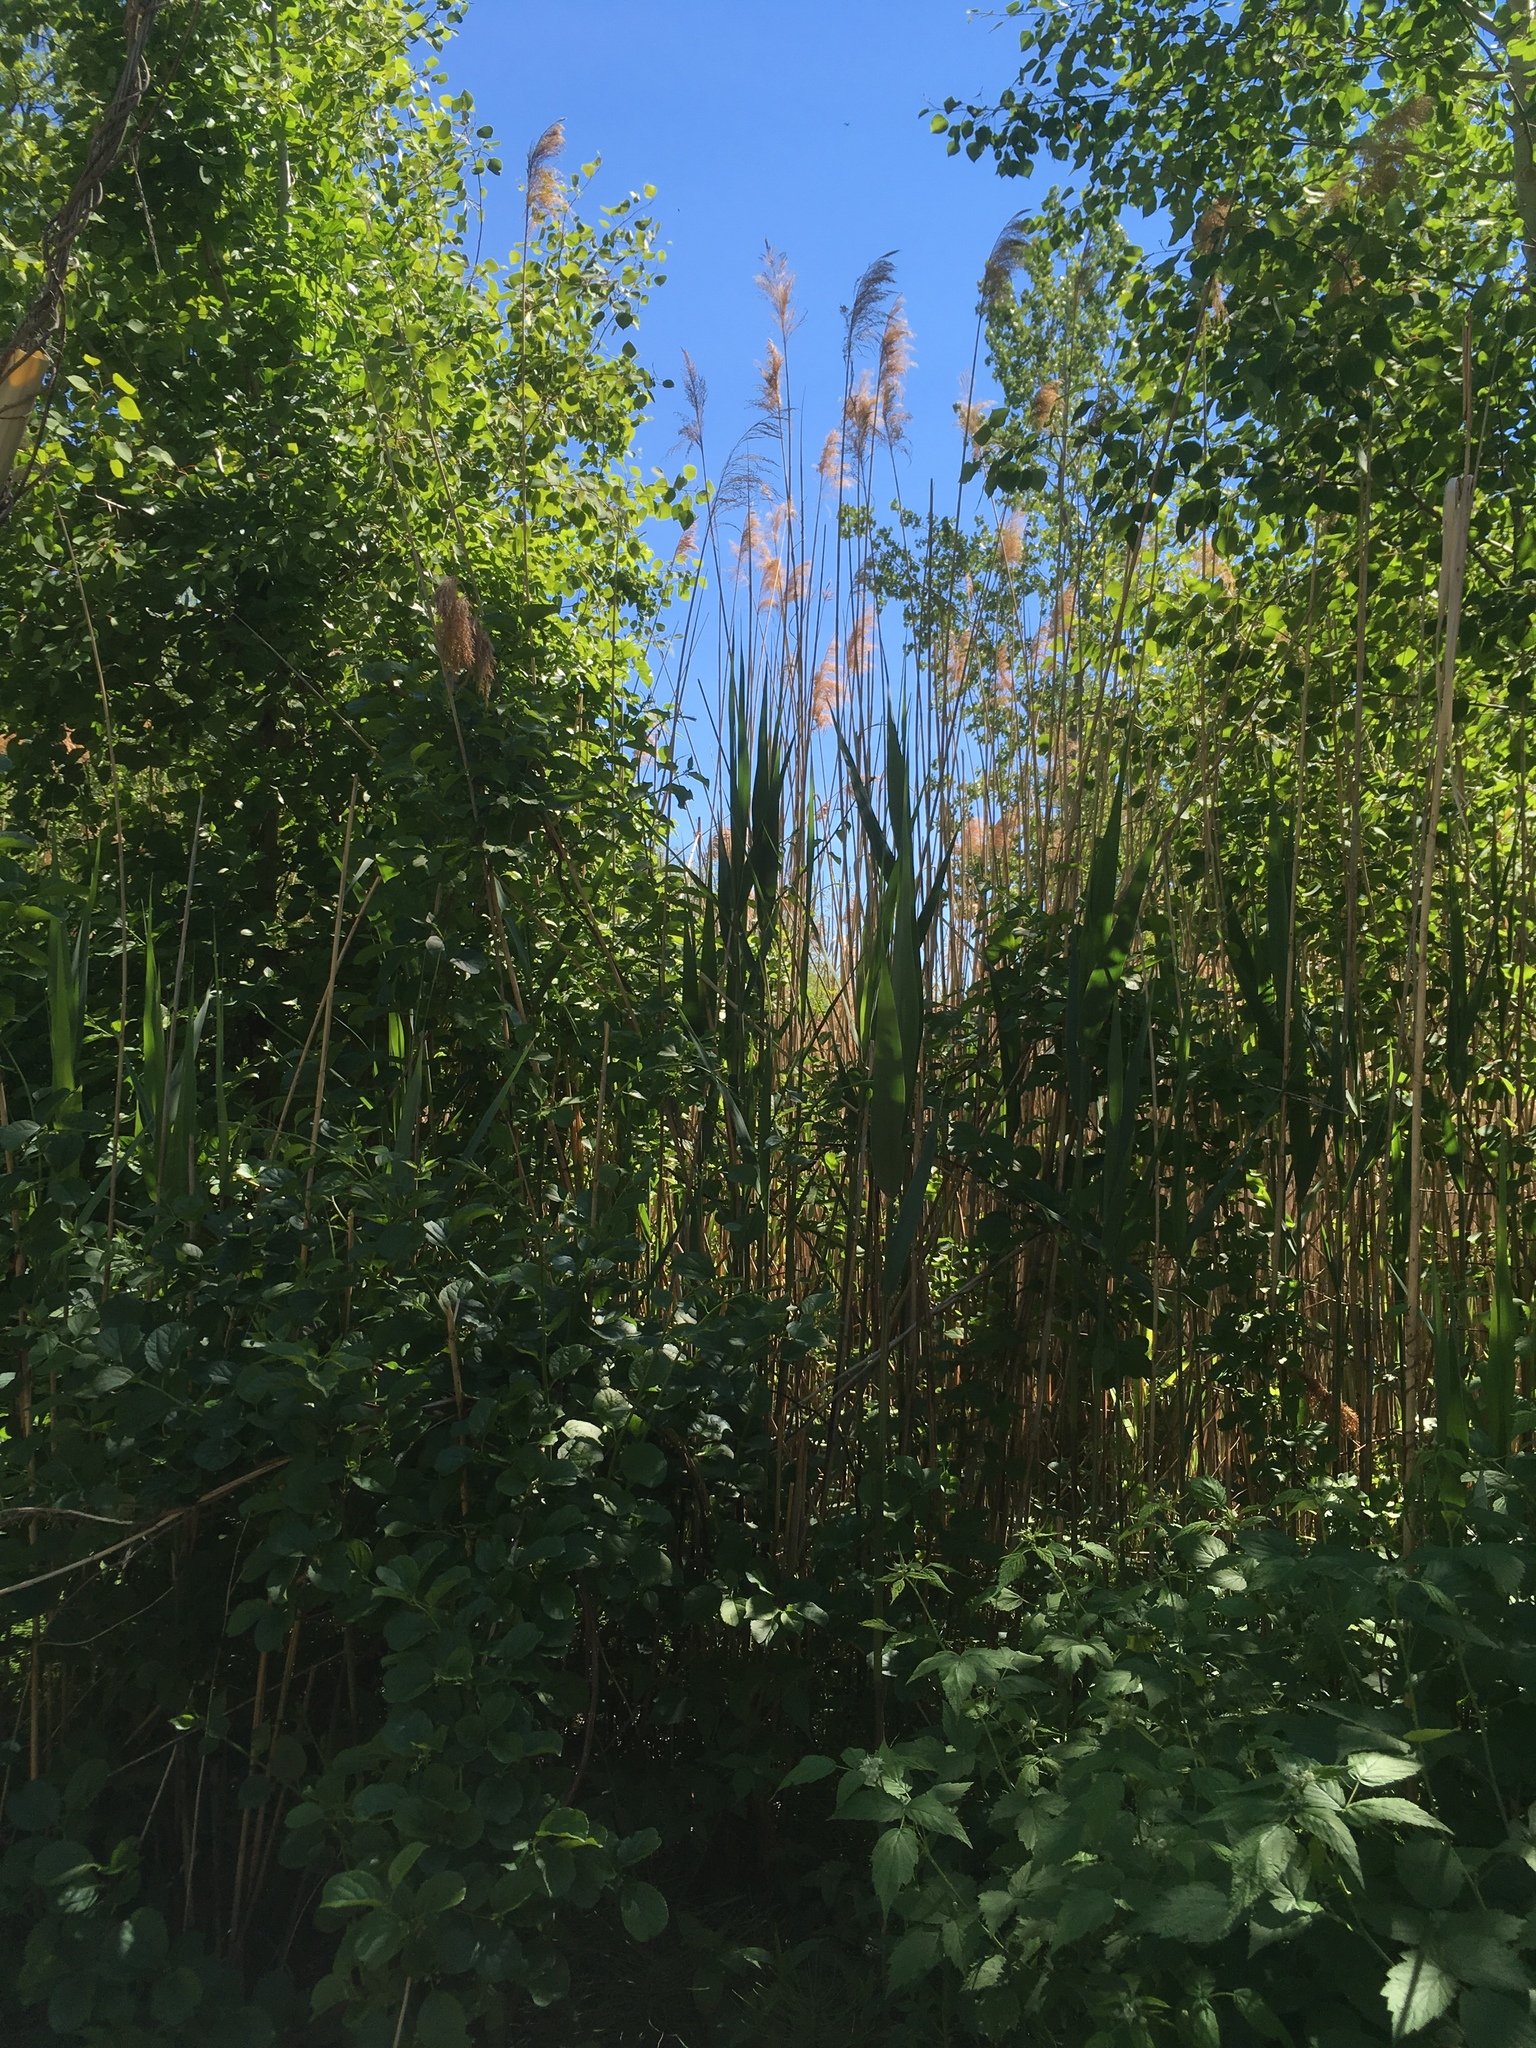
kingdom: Plantae
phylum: Tracheophyta
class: Liliopsida
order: Poales
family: Poaceae
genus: Phragmites
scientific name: Phragmites australis
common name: Common reed
